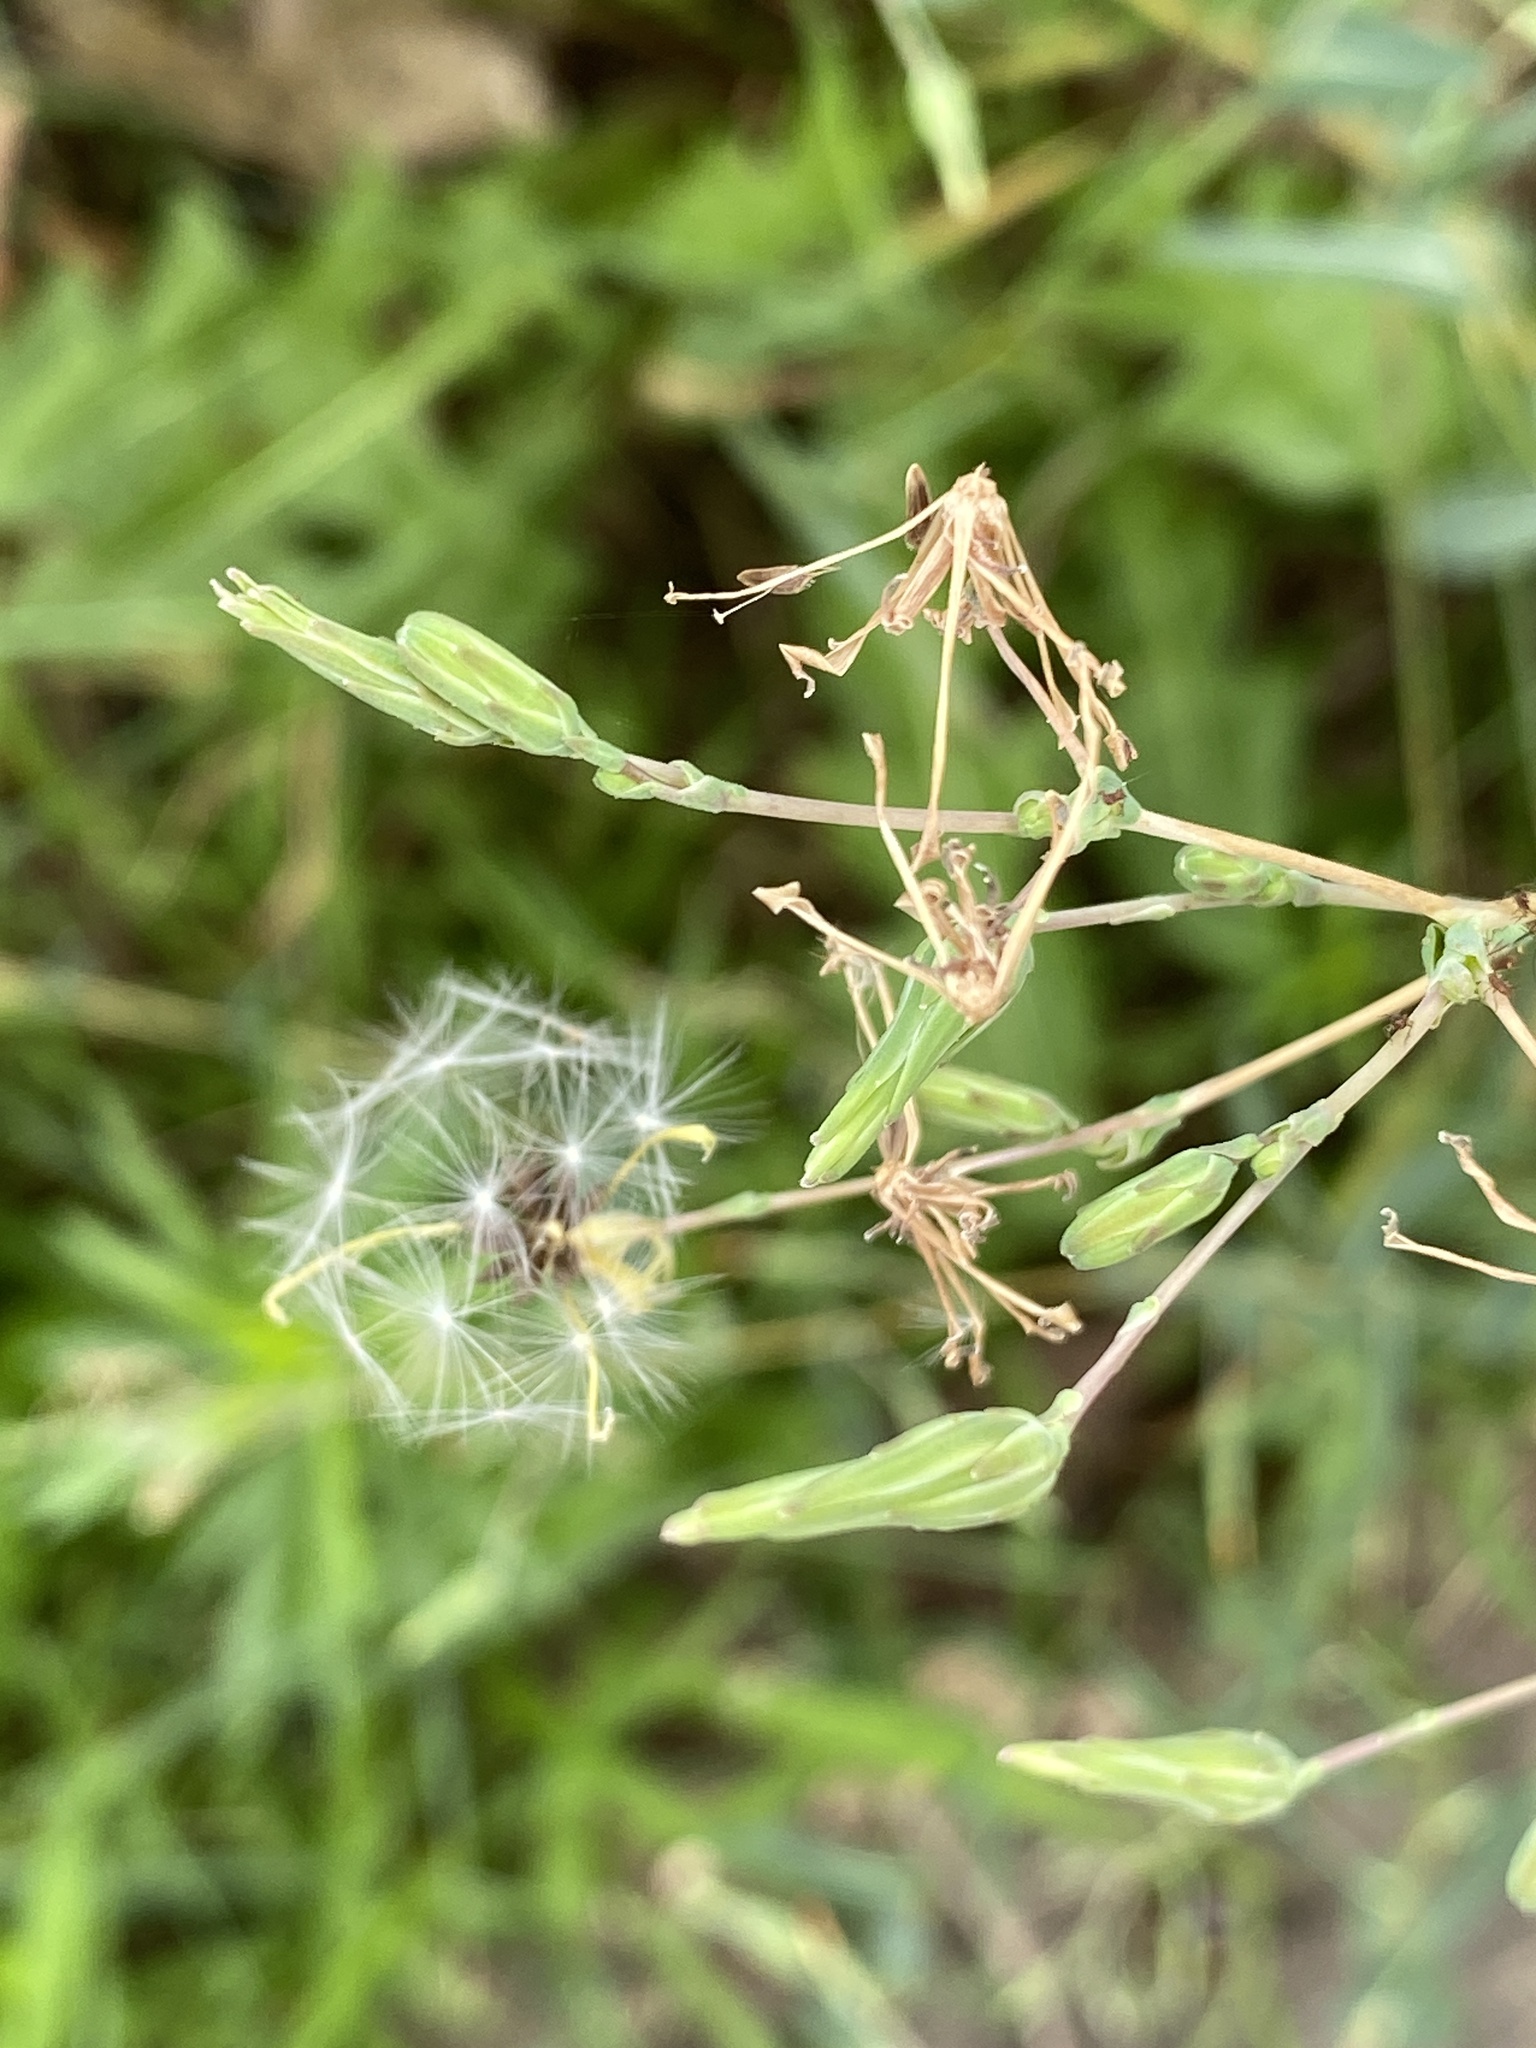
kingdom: Plantae
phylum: Tracheophyta
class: Magnoliopsida
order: Asterales
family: Asteraceae
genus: Lactuca
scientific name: Lactuca serriola
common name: Prickly lettuce
